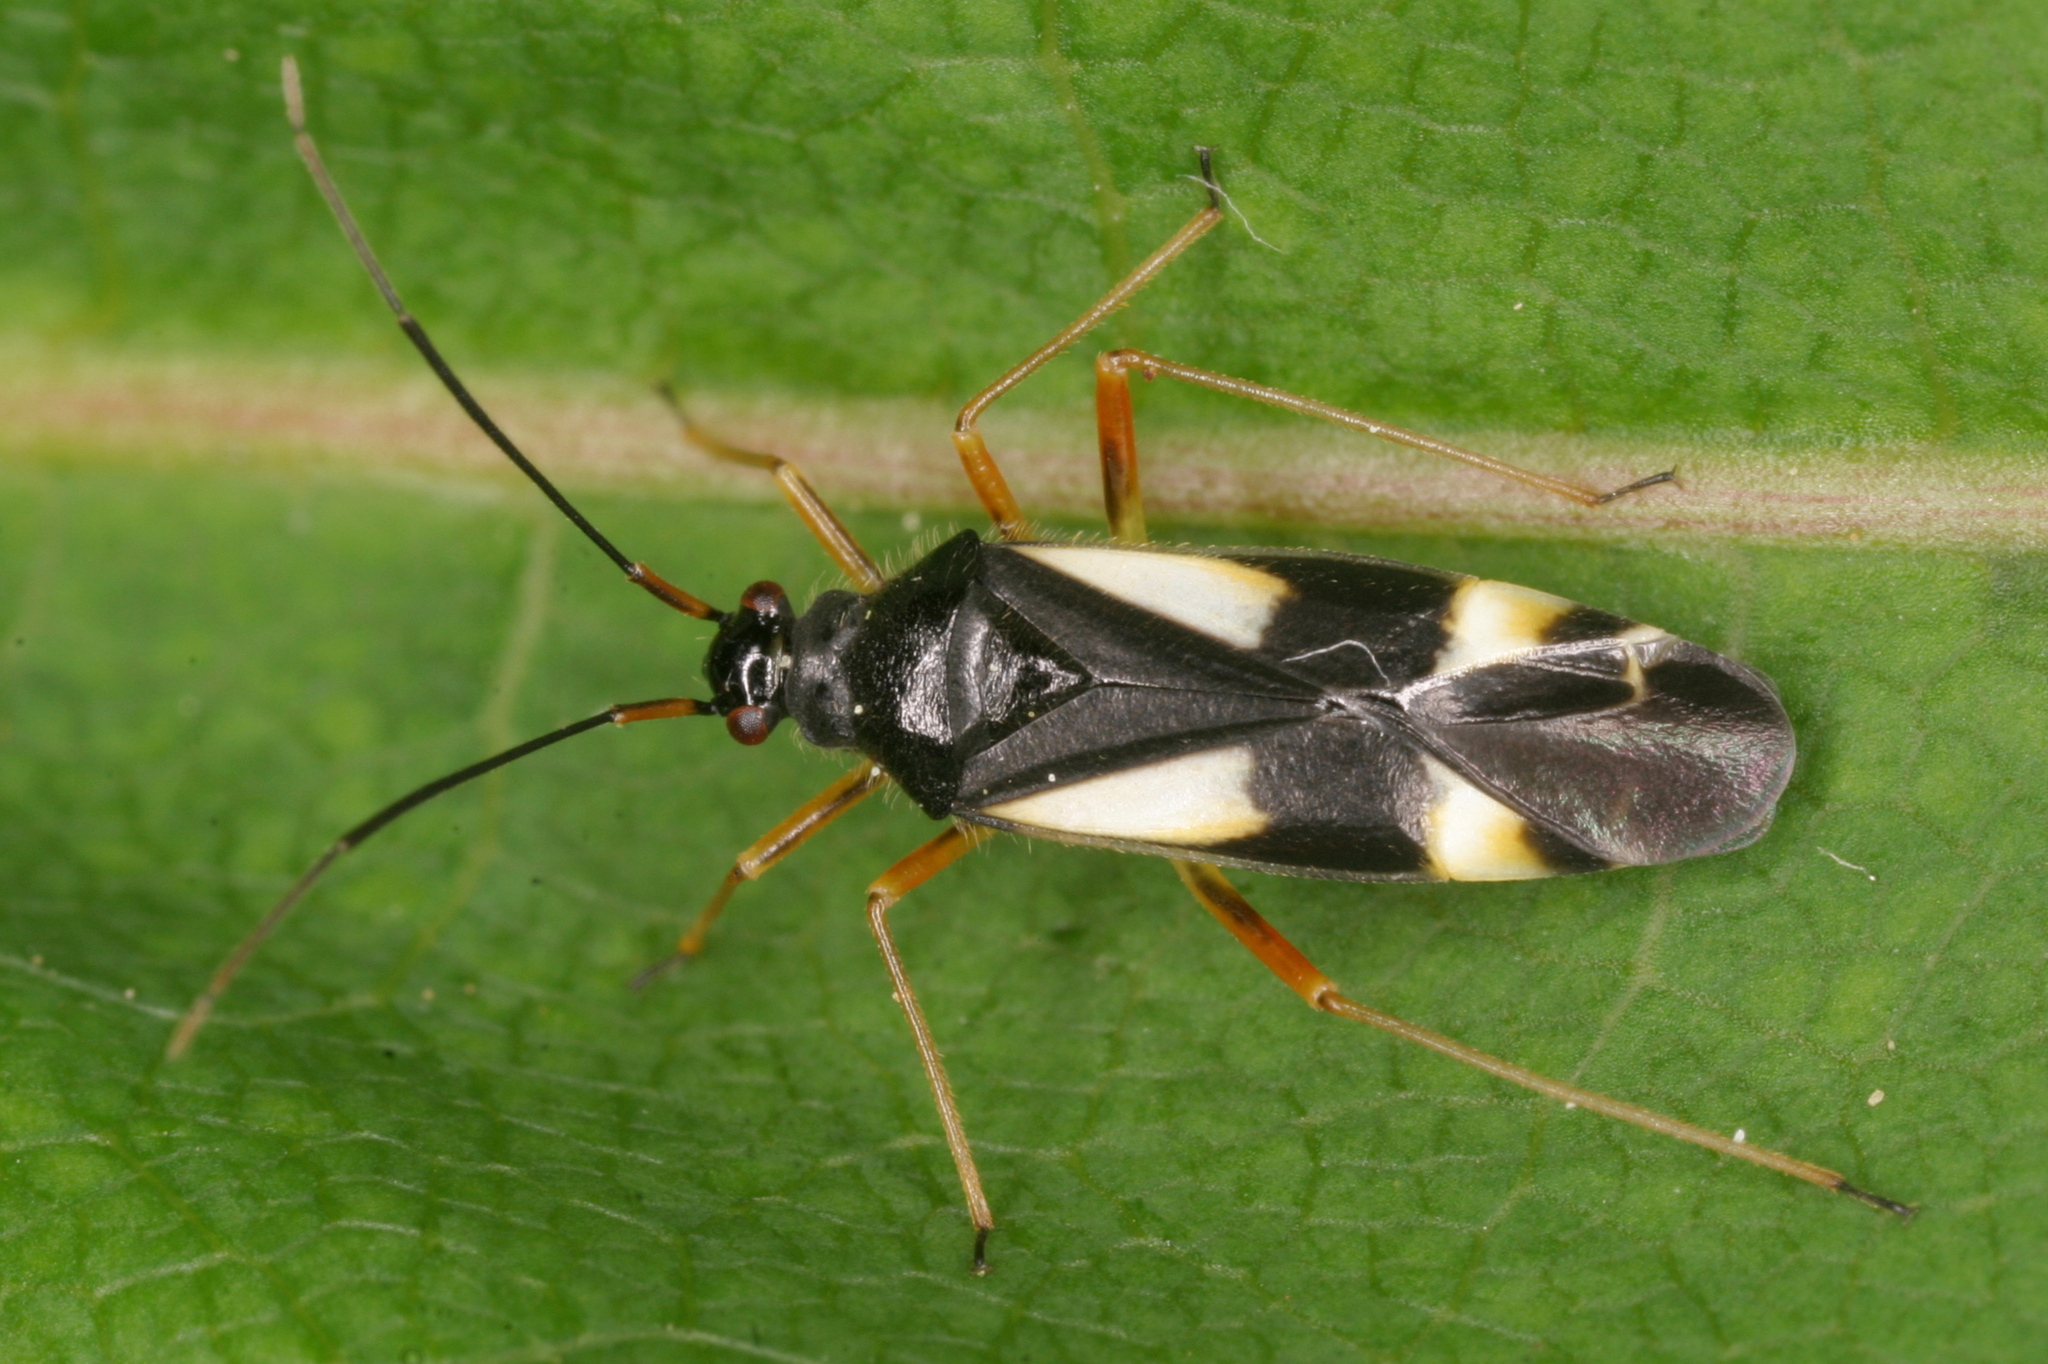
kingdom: Animalia
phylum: Arthropoda
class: Insecta
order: Hemiptera
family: Miridae
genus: Dryophilocoris
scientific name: Dryophilocoris flavoquadrimaculatus
